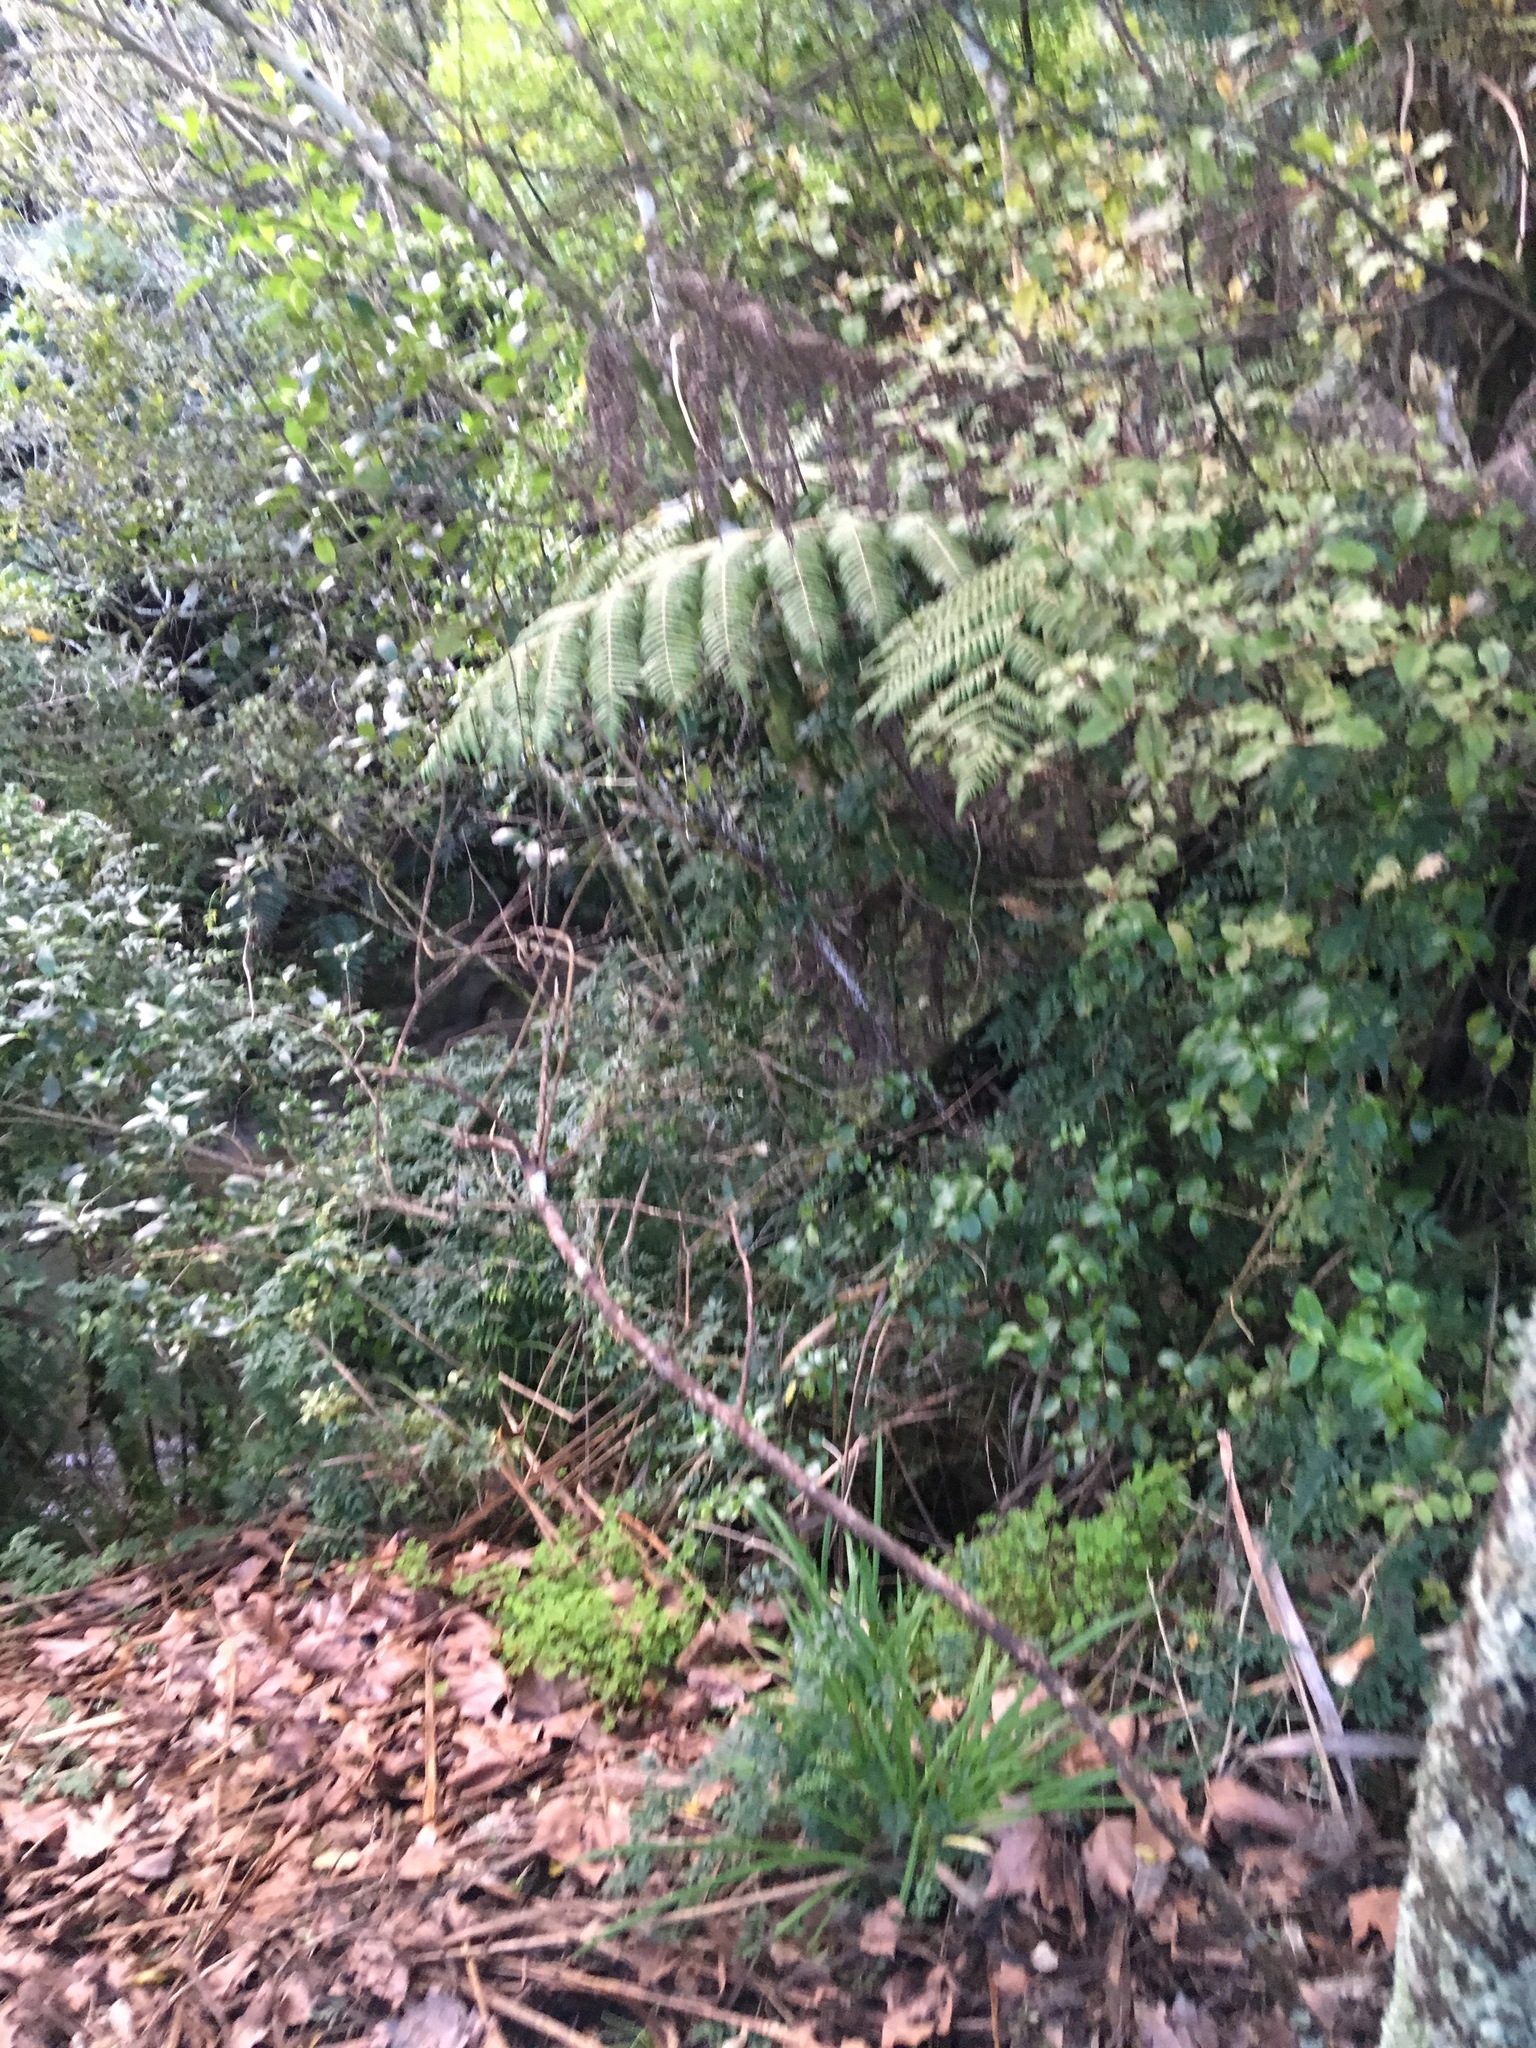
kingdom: Plantae
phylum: Tracheophyta
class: Magnoliopsida
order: Lamiales
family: Oleaceae
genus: Jasminum
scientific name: Jasminum polyanthum
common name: Pink jasmine
